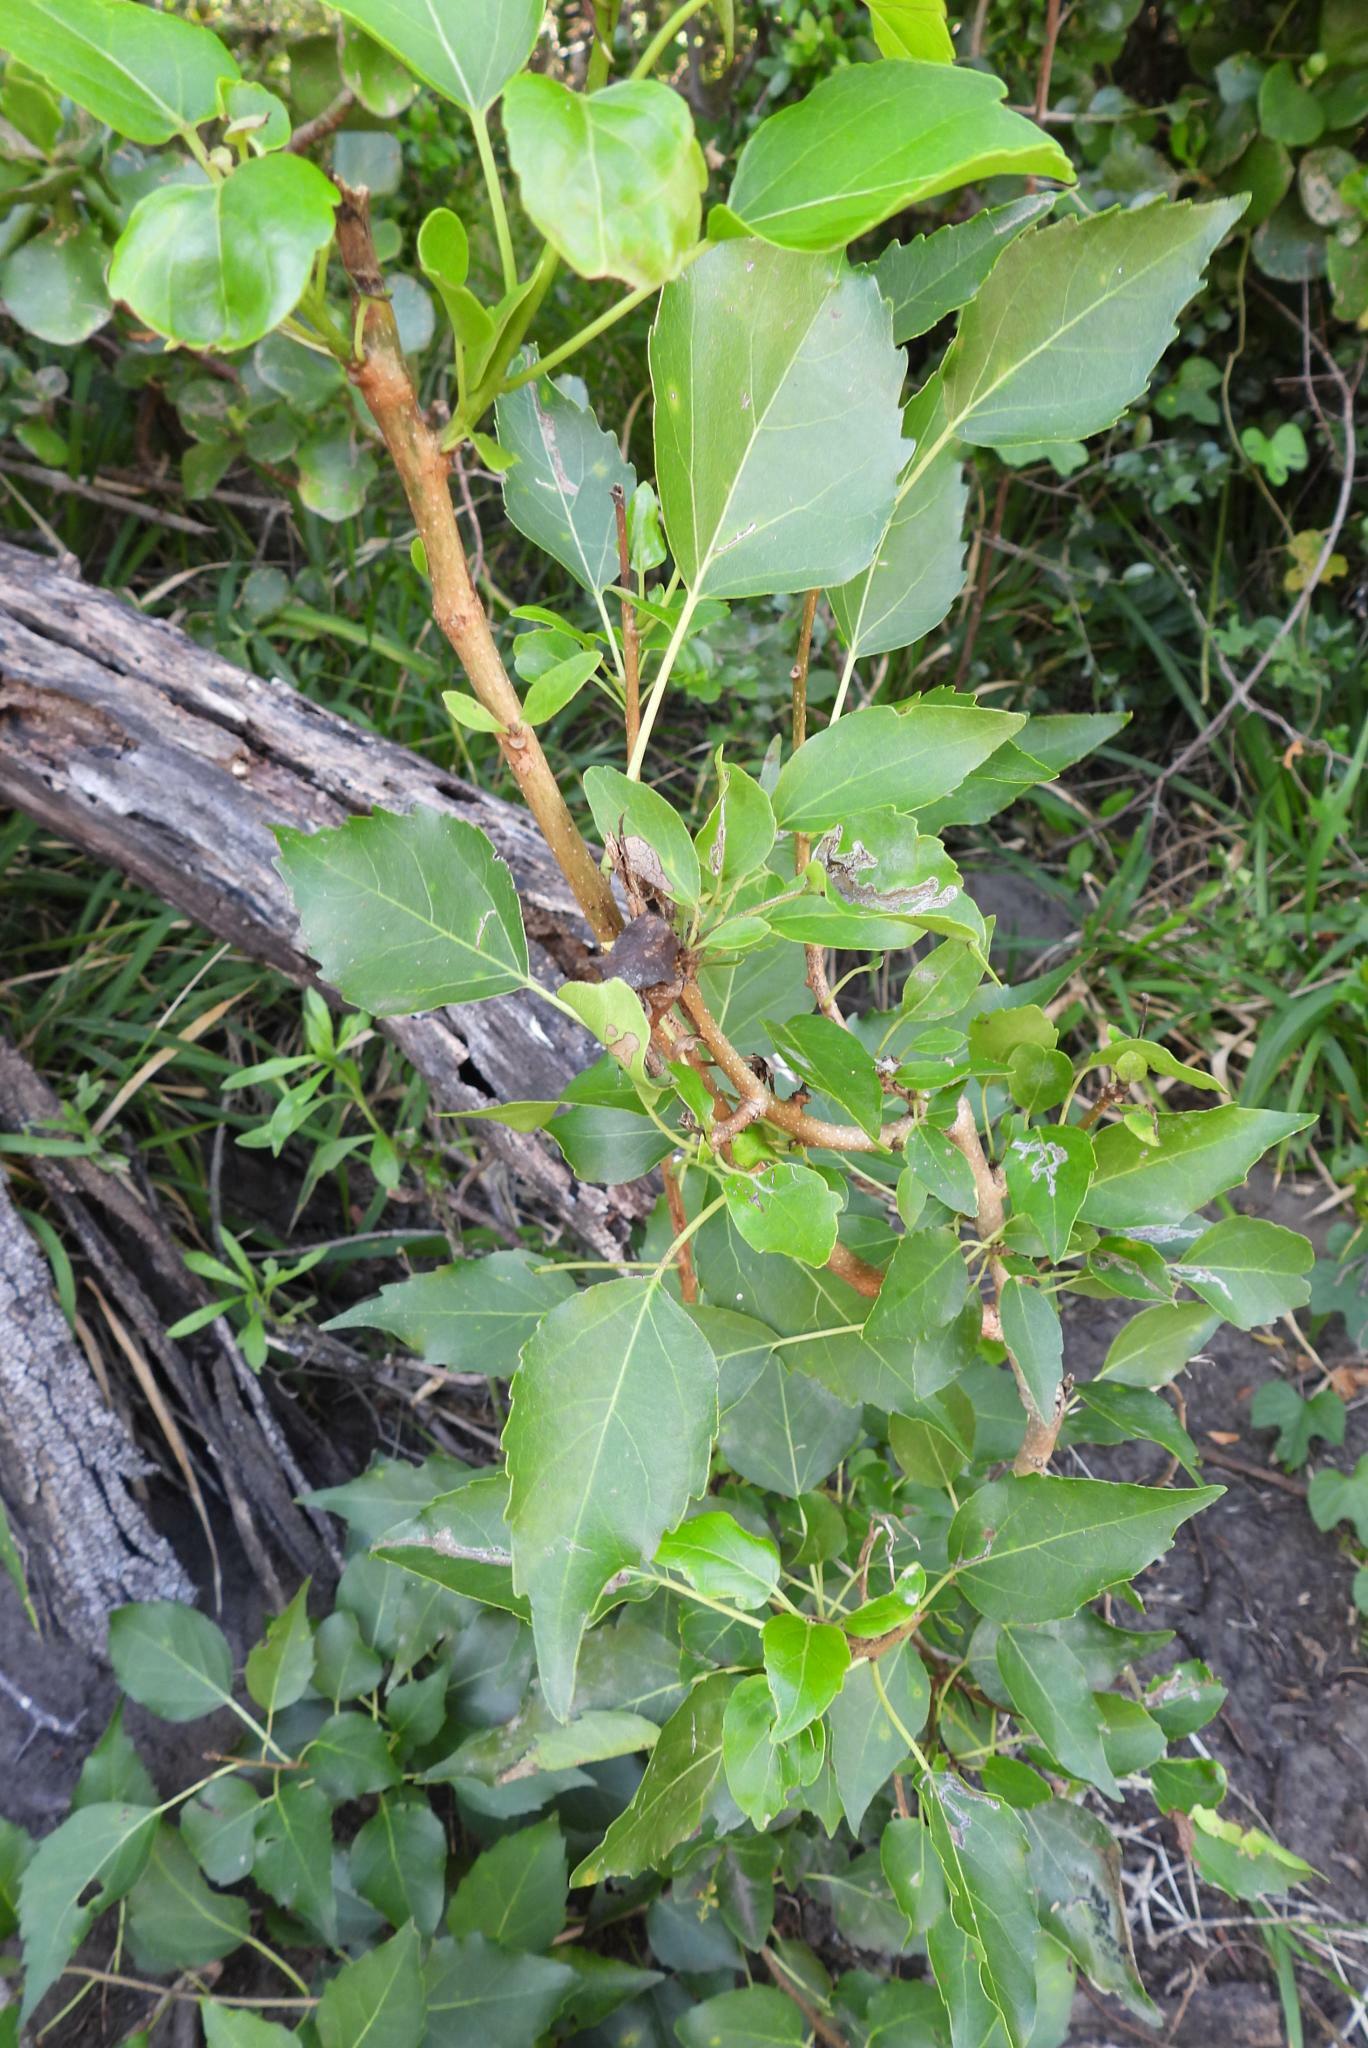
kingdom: Plantae
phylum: Tracheophyta
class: Magnoliopsida
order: Boraginales
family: Cordiaceae
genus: Cordia
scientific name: Cordia caffra
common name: Septee tree
